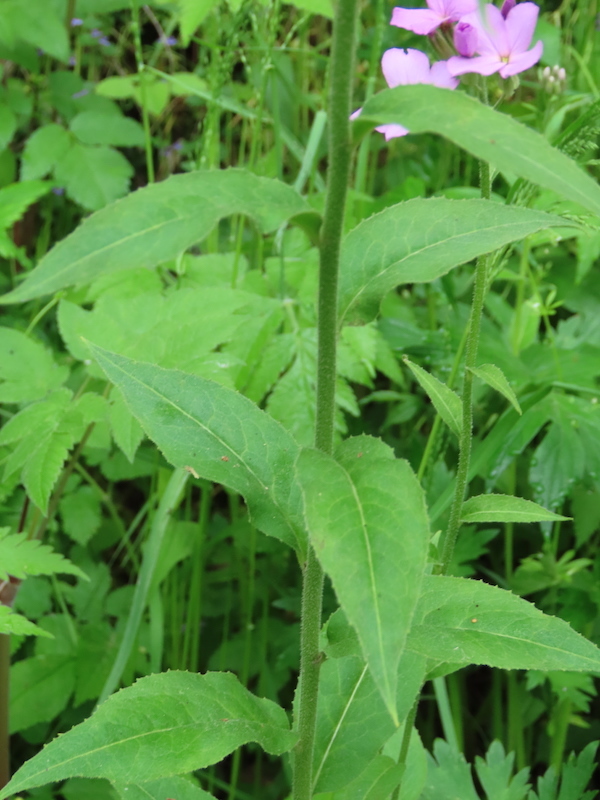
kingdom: Plantae
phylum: Tracheophyta
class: Magnoliopsida
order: Brassicales
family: Brassicaceae
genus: Hesperis
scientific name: Hesperis matronalis
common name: Dame's-violet
